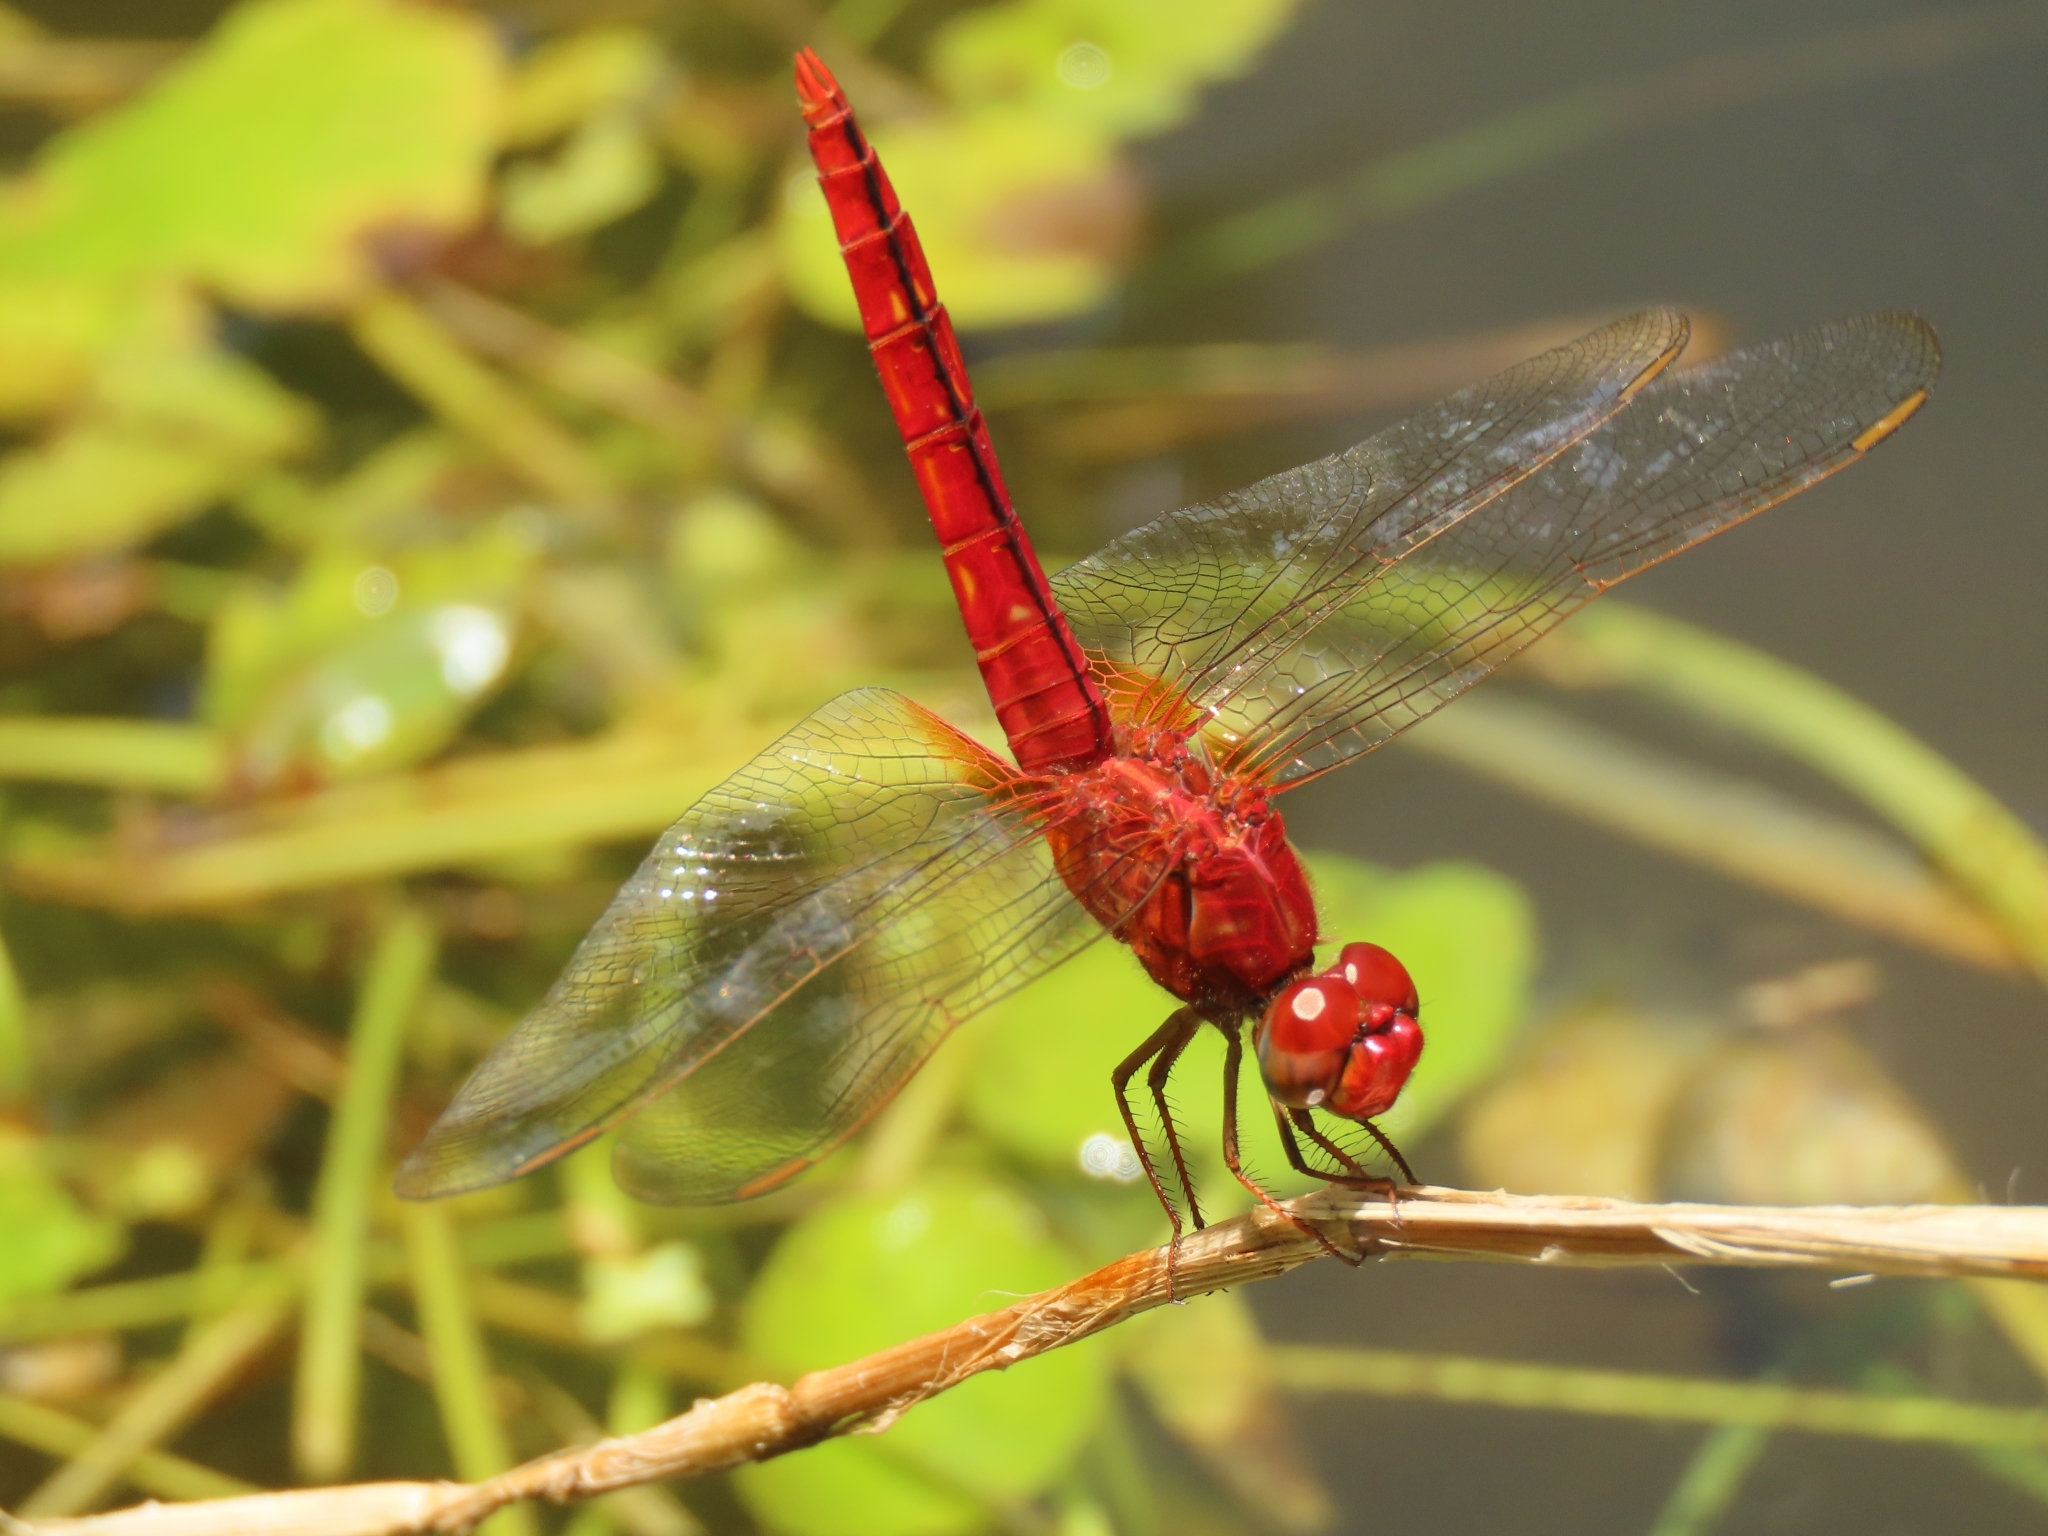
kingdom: Animalia
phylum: Arthropoda
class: Insecta
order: Odonata
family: Libellulidae
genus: Crocothemis
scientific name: Crocothemis servilia
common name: Scarlet skimmer
